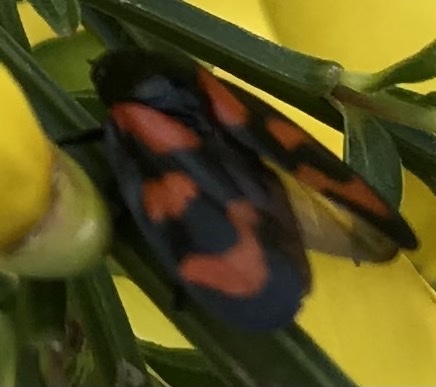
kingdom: Animalia
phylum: Arthropoda
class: Insecta
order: Hemiptera
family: Cercopidae
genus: Cercopis
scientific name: Cercopis vulnerata
